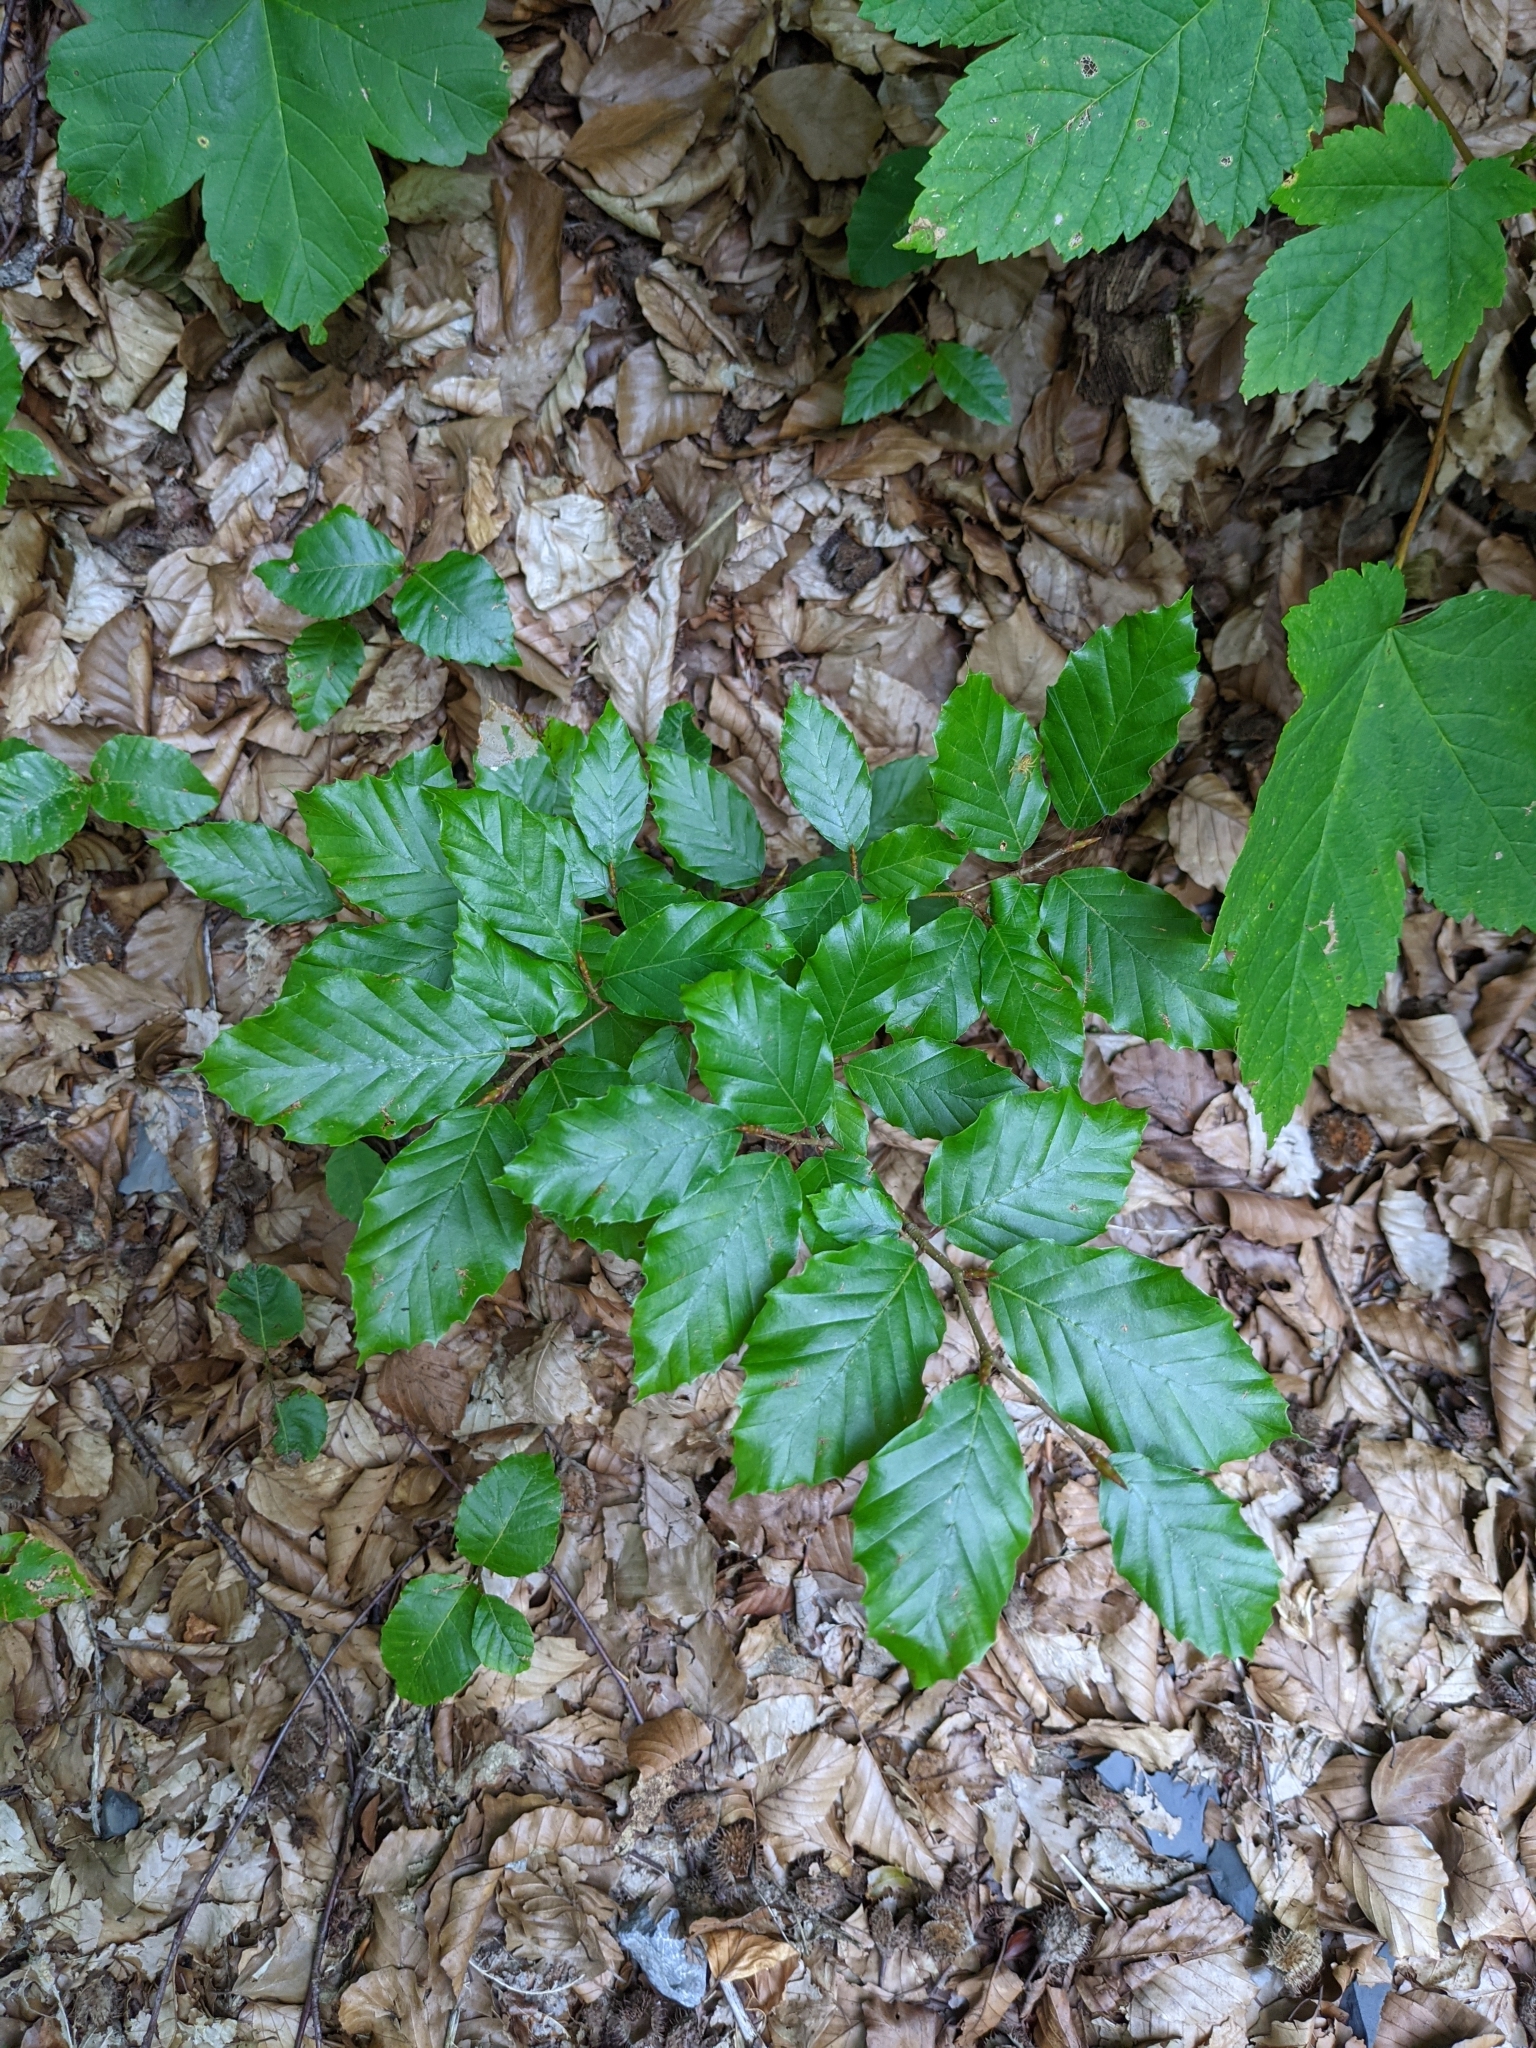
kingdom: Plantae
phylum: Tracheophyta
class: Magnoliopsida
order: Fagales
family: Fagaceae
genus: Fagus
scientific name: Fagus sylvatica
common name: Beech
